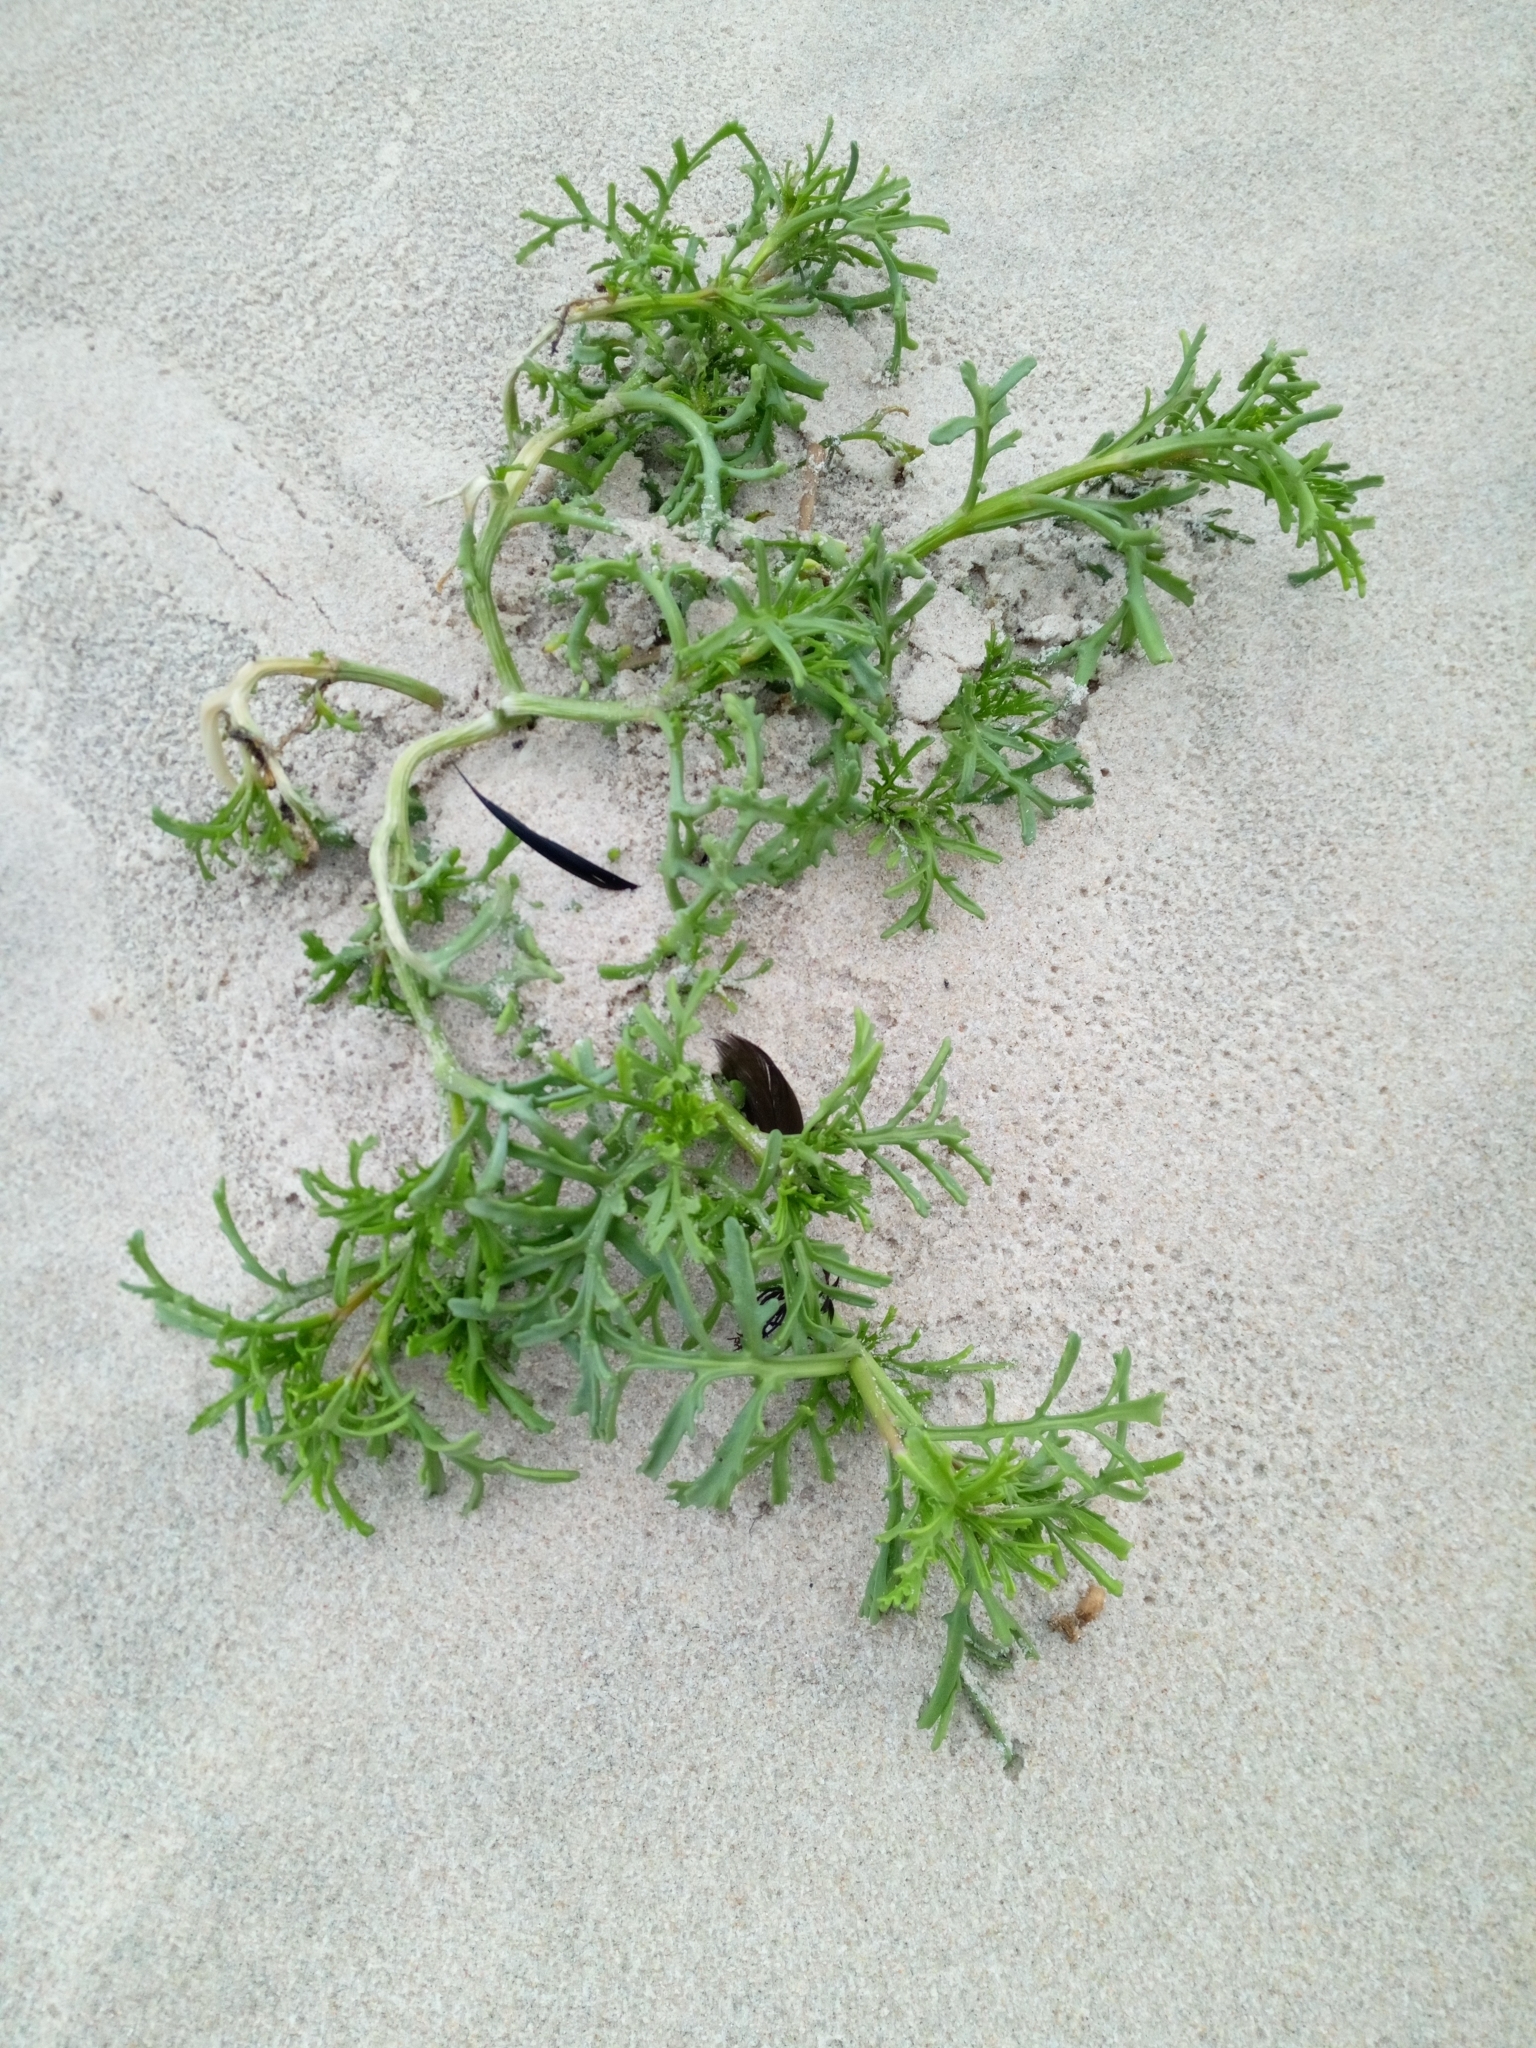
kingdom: Plantae
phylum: Tracheophyta
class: Magnoliopsida
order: Brassicales
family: Brassicaceae
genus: Cakile
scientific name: Cakile maritima
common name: Sea rocket
